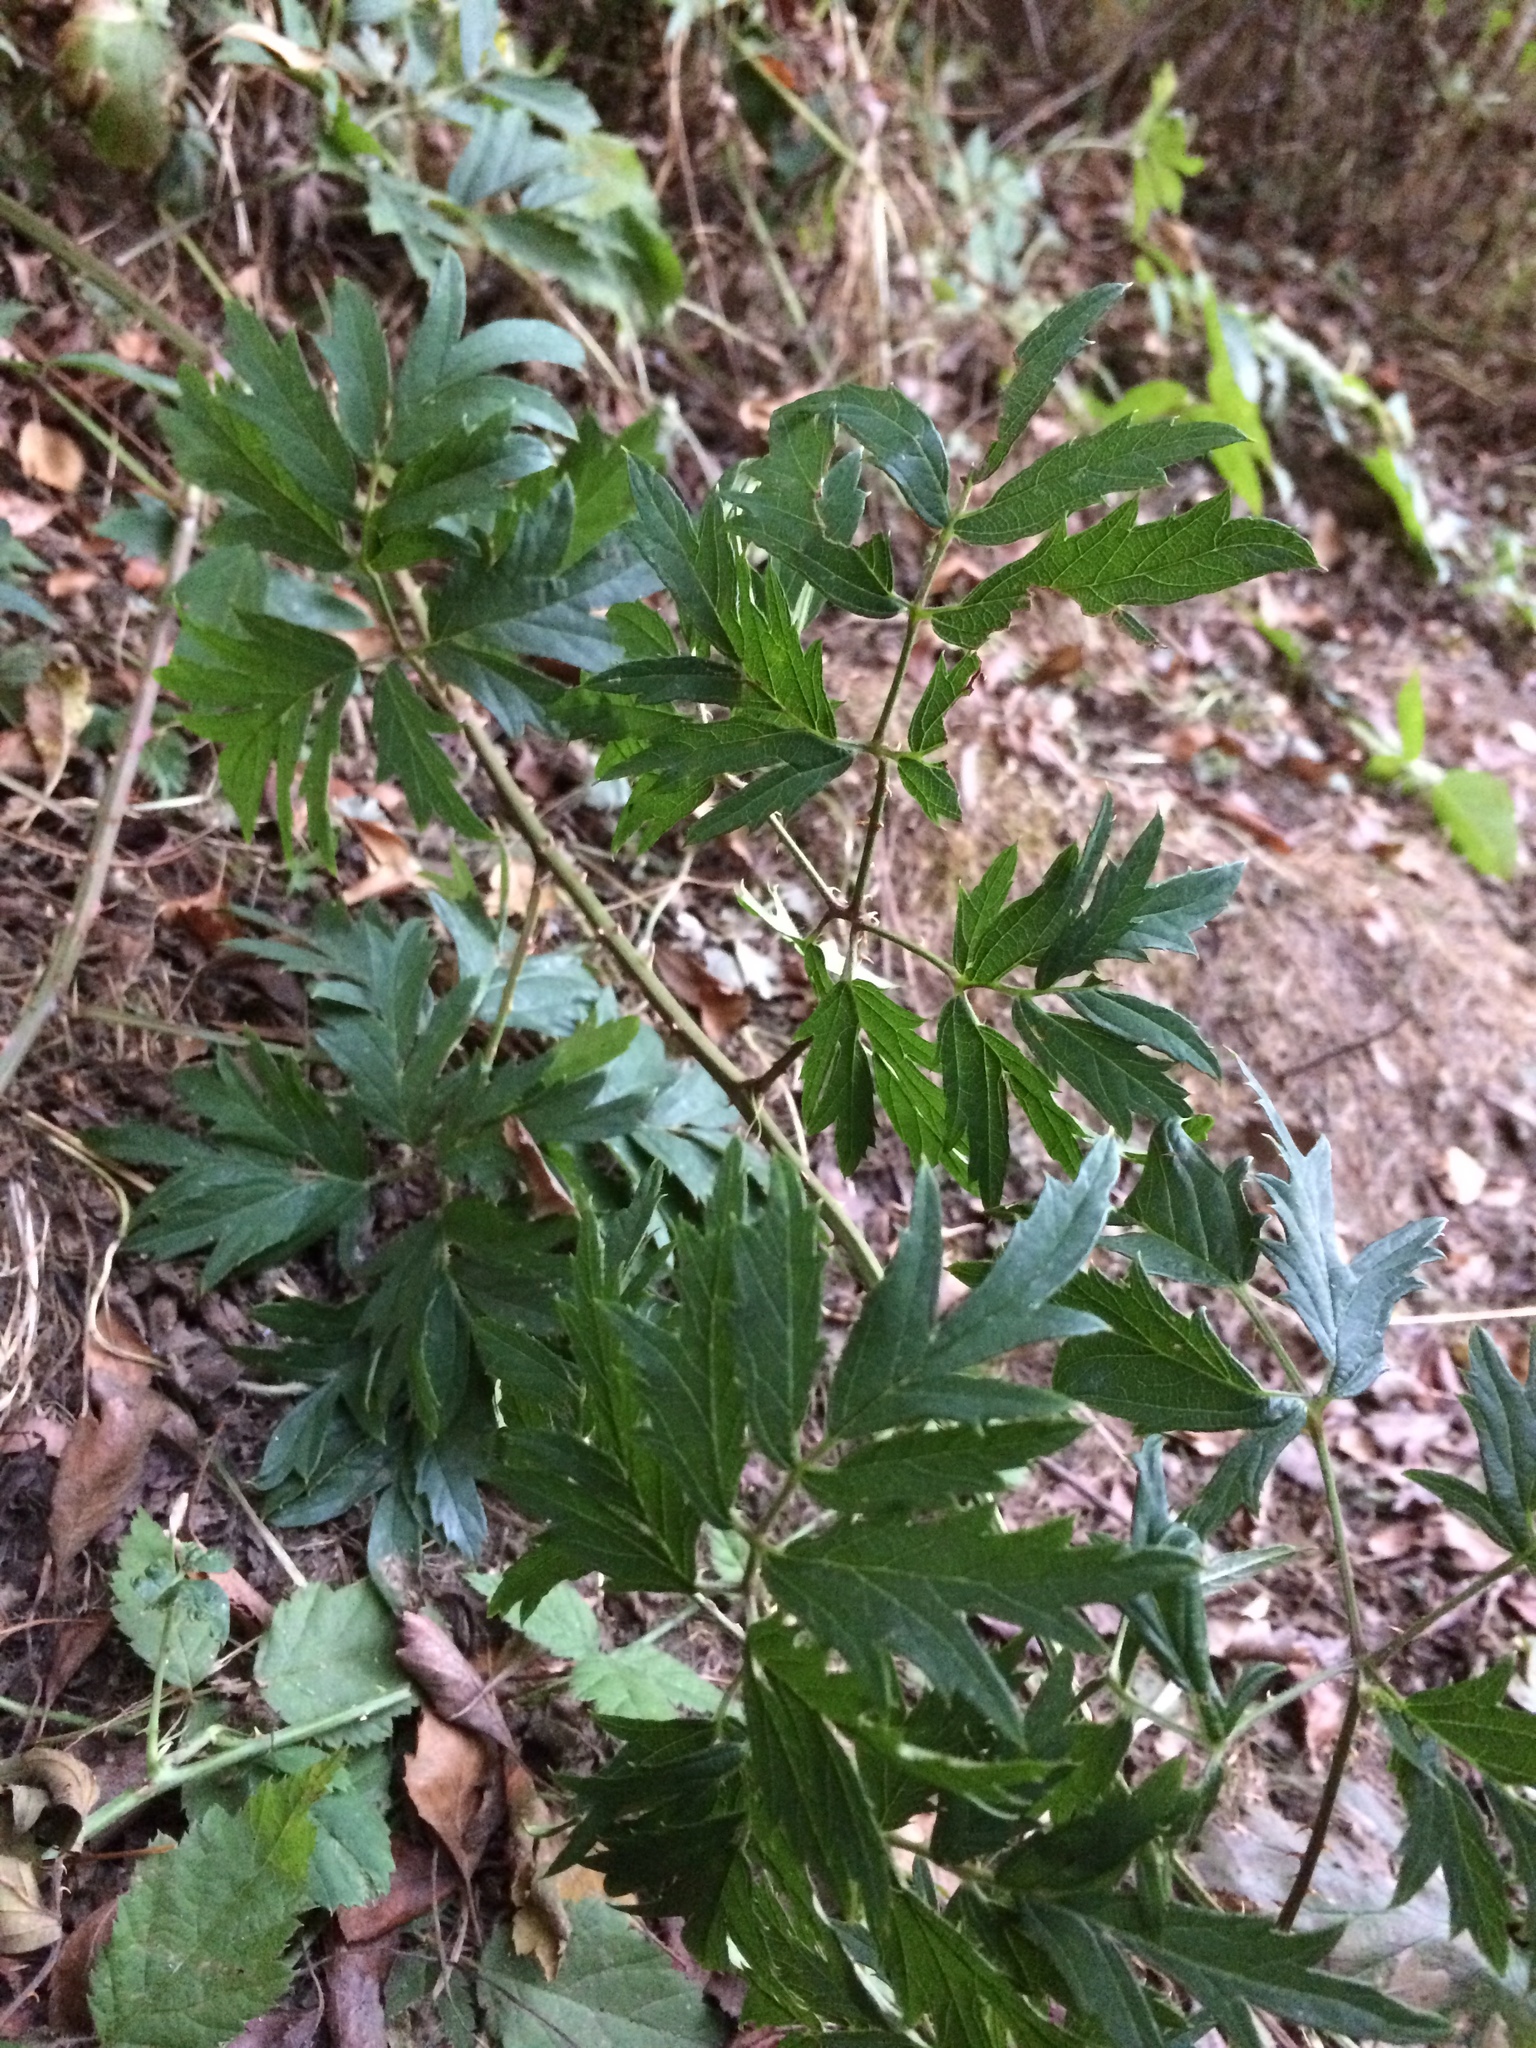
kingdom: Plantae
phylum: Tracheophyta
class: Magnoliopsida
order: Rosales
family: Rosaceae
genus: Rubus
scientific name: Rubus laciniatus
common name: Evergreen blackberry
